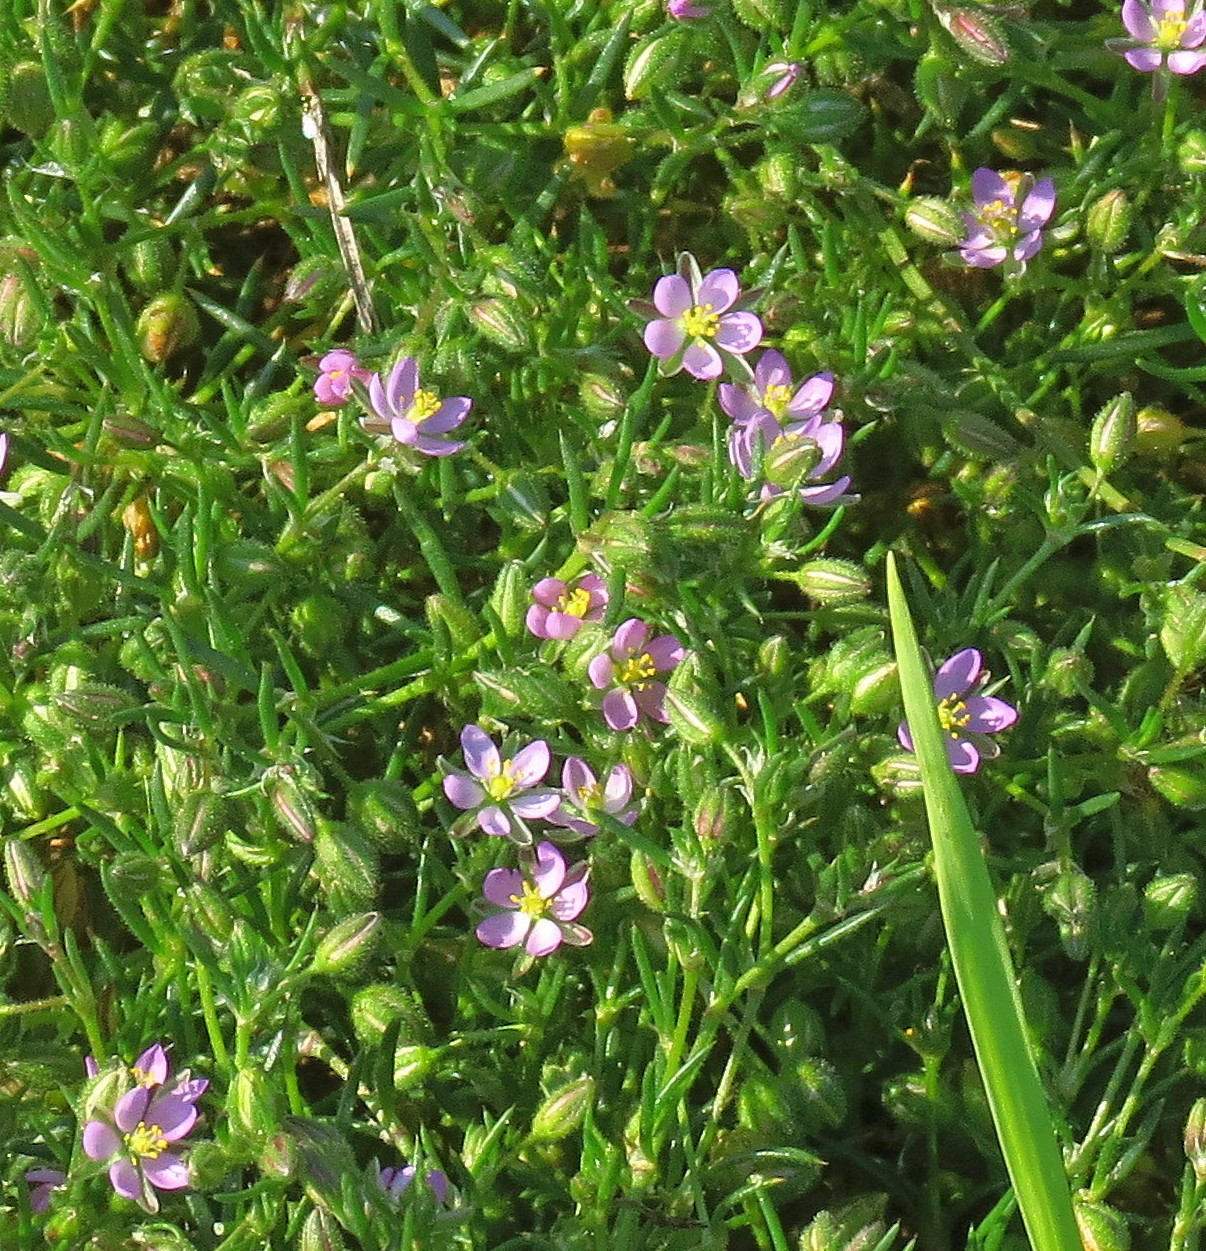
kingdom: Plantae
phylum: Tracheophyta
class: Magnoliopsida
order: Caryophyllales
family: Caryophyllaceae
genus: Spergularia
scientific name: Spergularia rubra
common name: Red sand-spurrey
